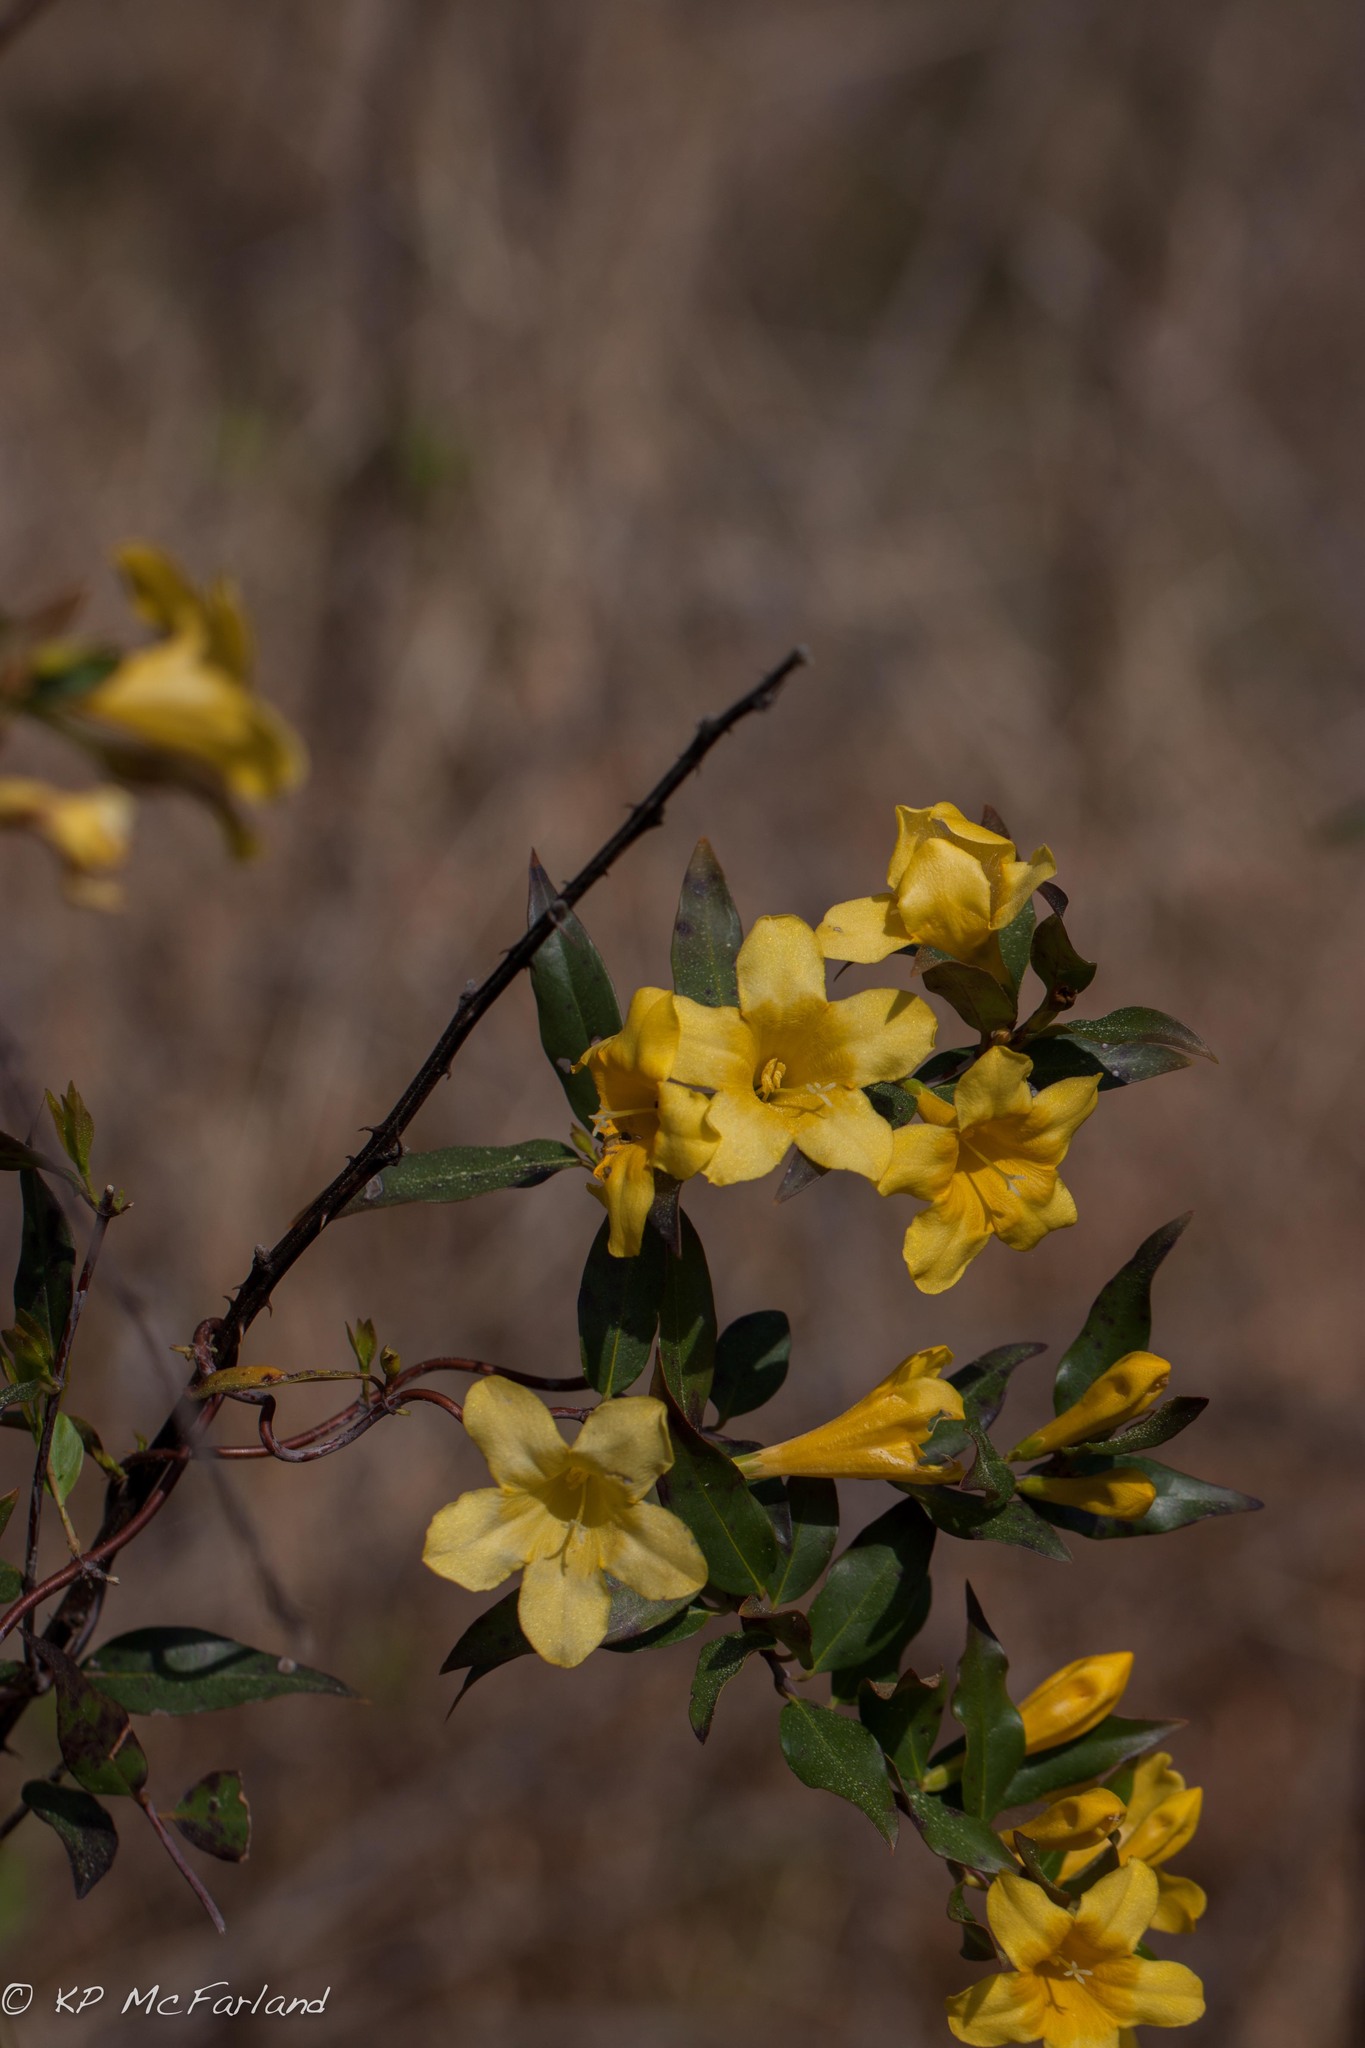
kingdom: Plantae
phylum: Tracheophyta
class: Magnoliopsida
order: Gentianales
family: Gelsemiaceae
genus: Gelsemium
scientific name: Gelsemium sempervirens
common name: Carolina-jasmine
